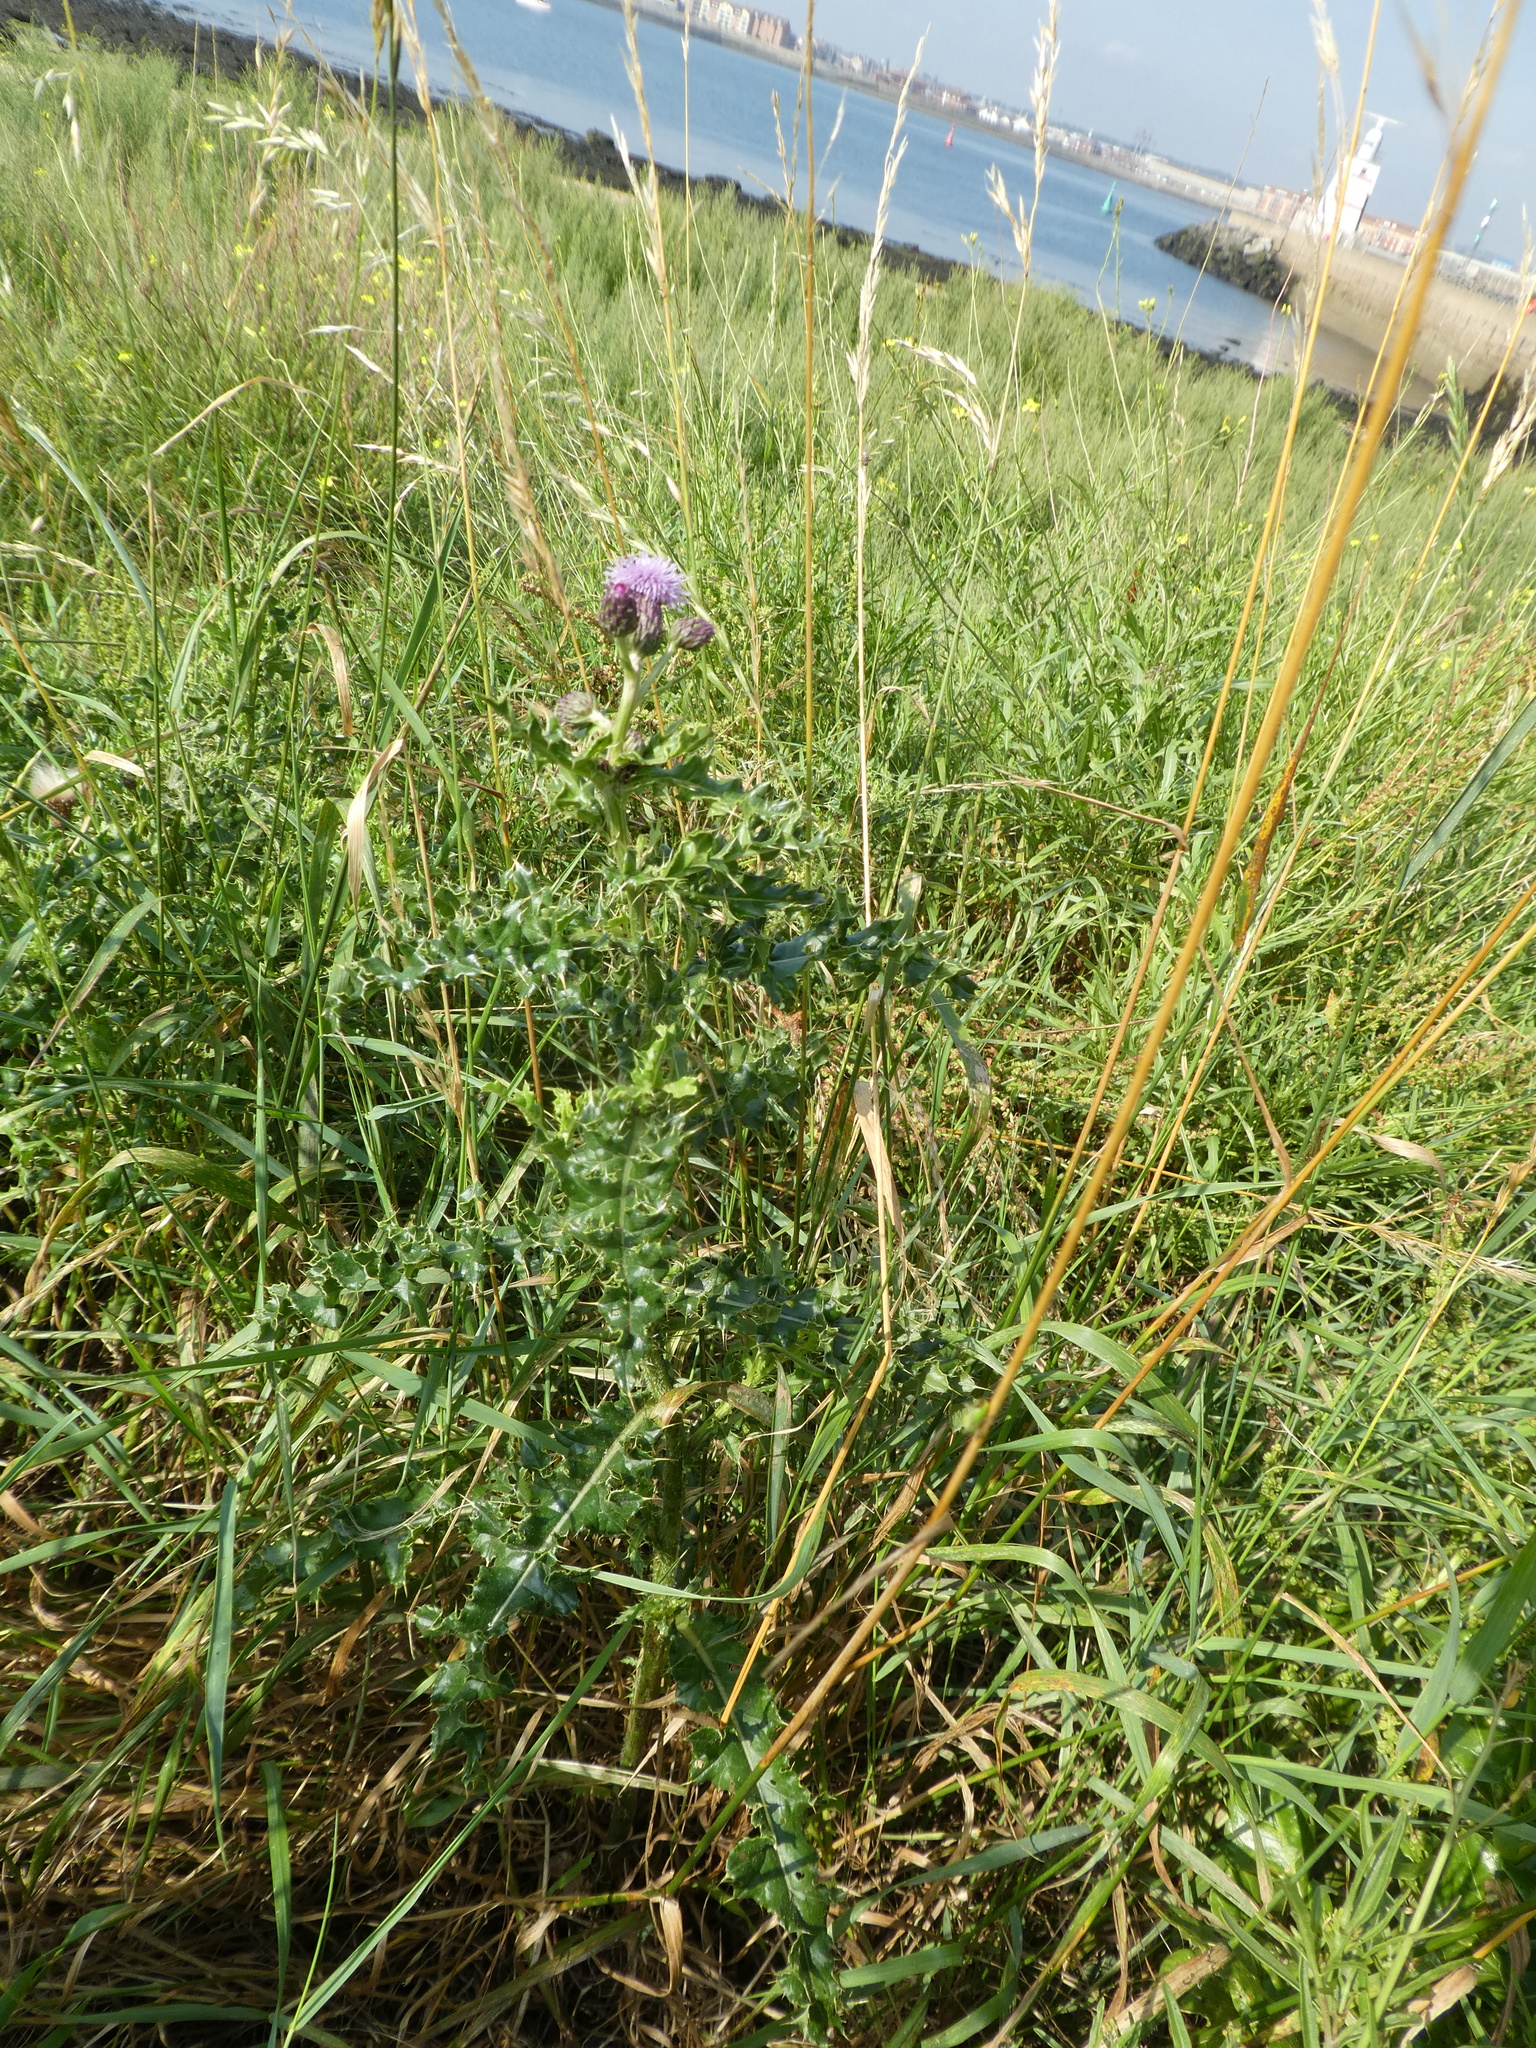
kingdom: Plantae
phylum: Tracheophyta
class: Magnoliopsida
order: Asterales
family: Asteraceae
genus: Cirsium
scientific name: Cirsium arvense
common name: Creeping thistle
